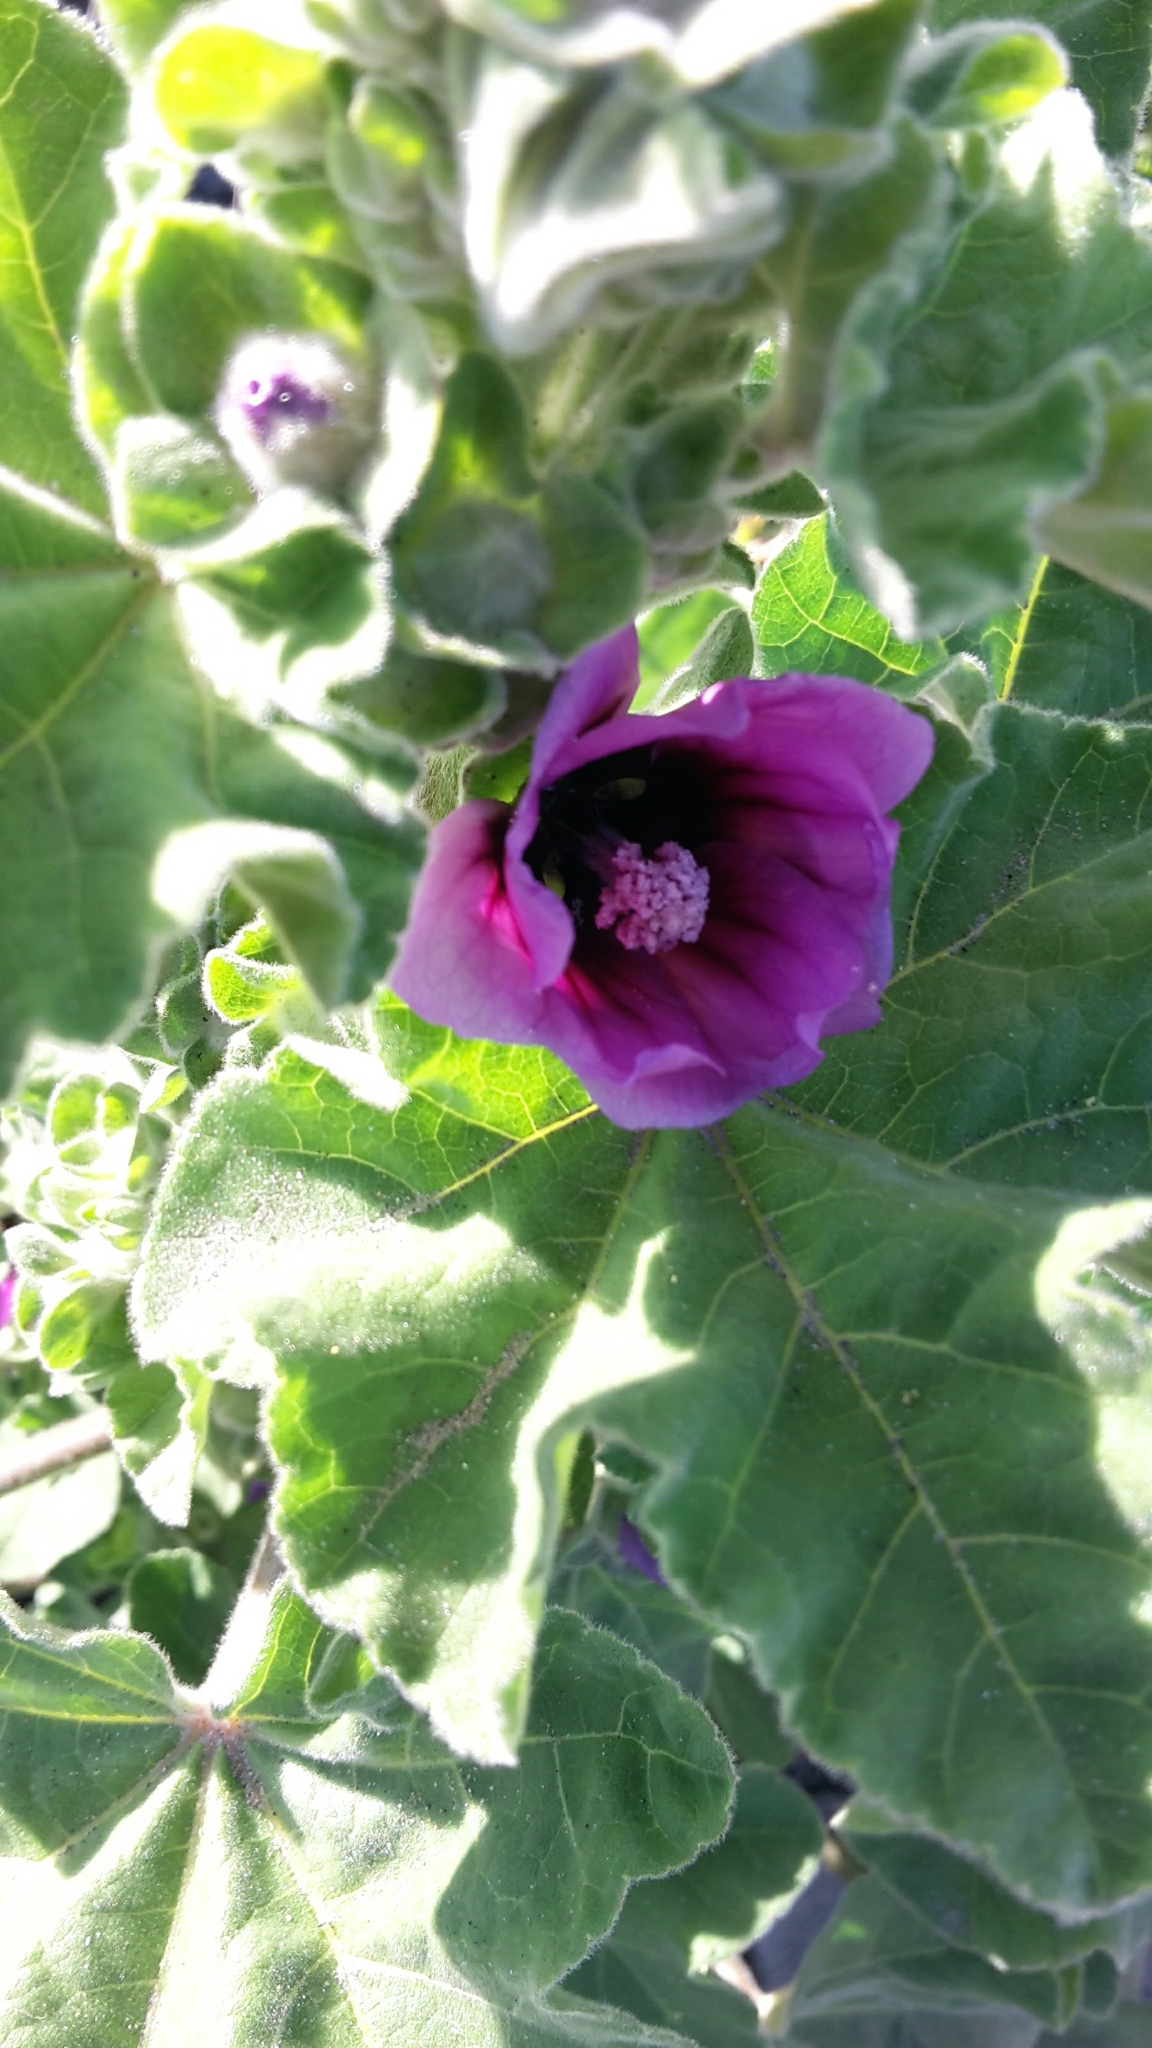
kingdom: Plantae
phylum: Tracheophyta
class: Magnoliopsida
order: Malvales
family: Malvaceae
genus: Malva
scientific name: Malva arborea
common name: Tree mallow
